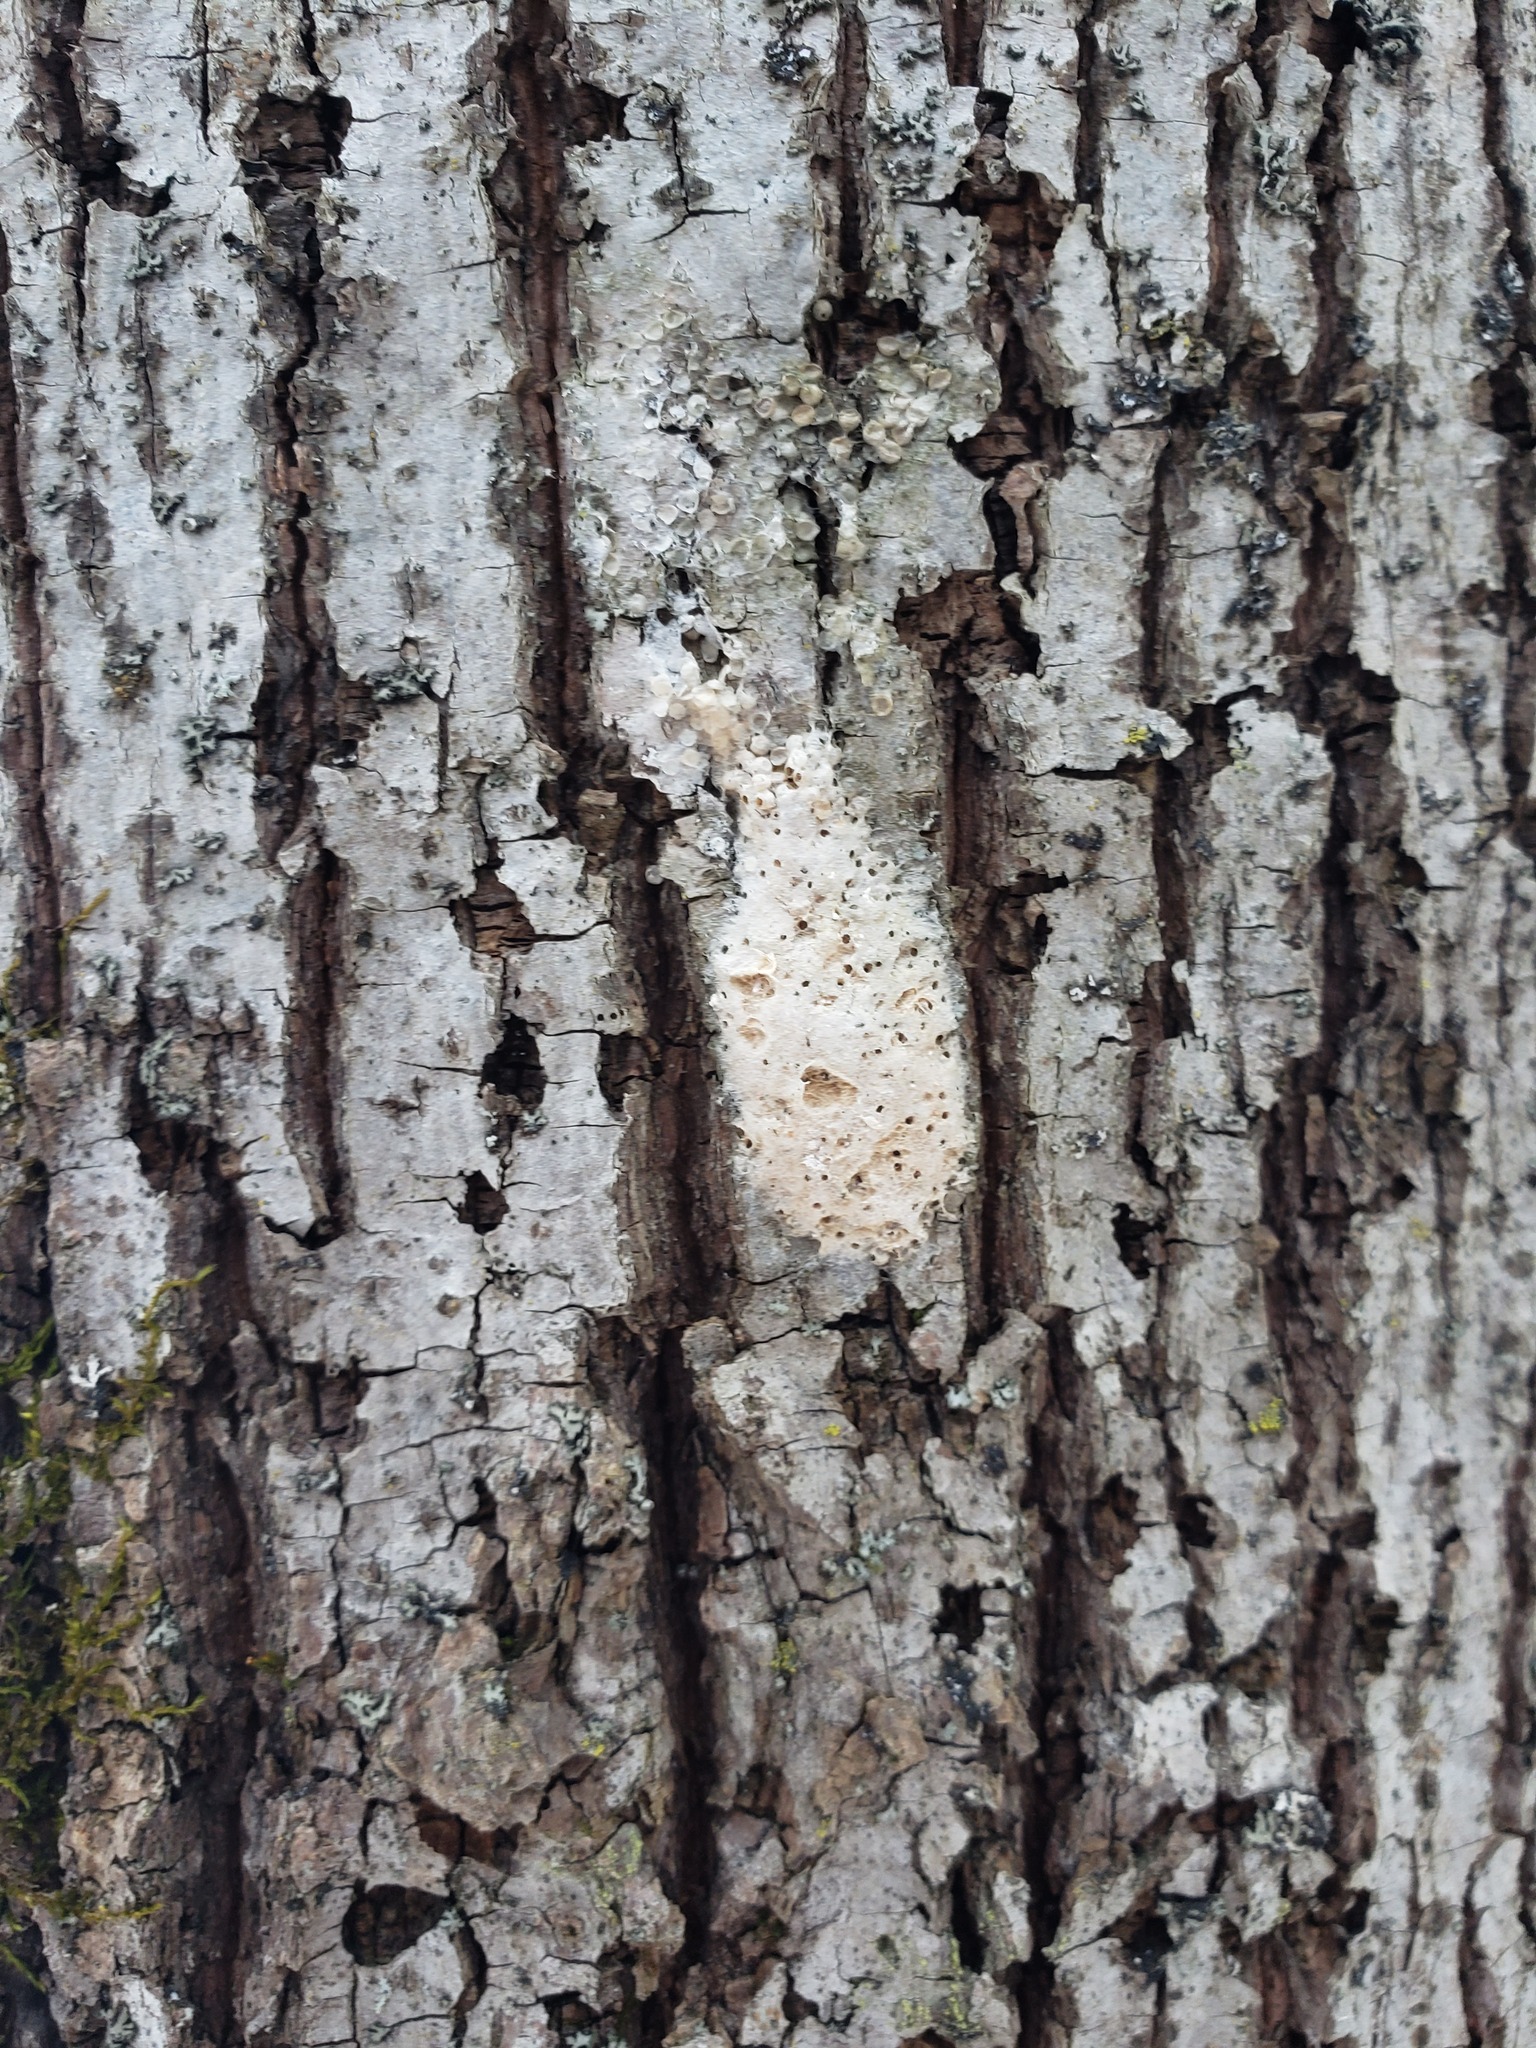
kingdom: Animalia
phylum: Arthropoda
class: Insecta
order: Lepidoptera
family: Erebidae
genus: Lymantria
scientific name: Lymantria dispar
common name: Gypsy moth
